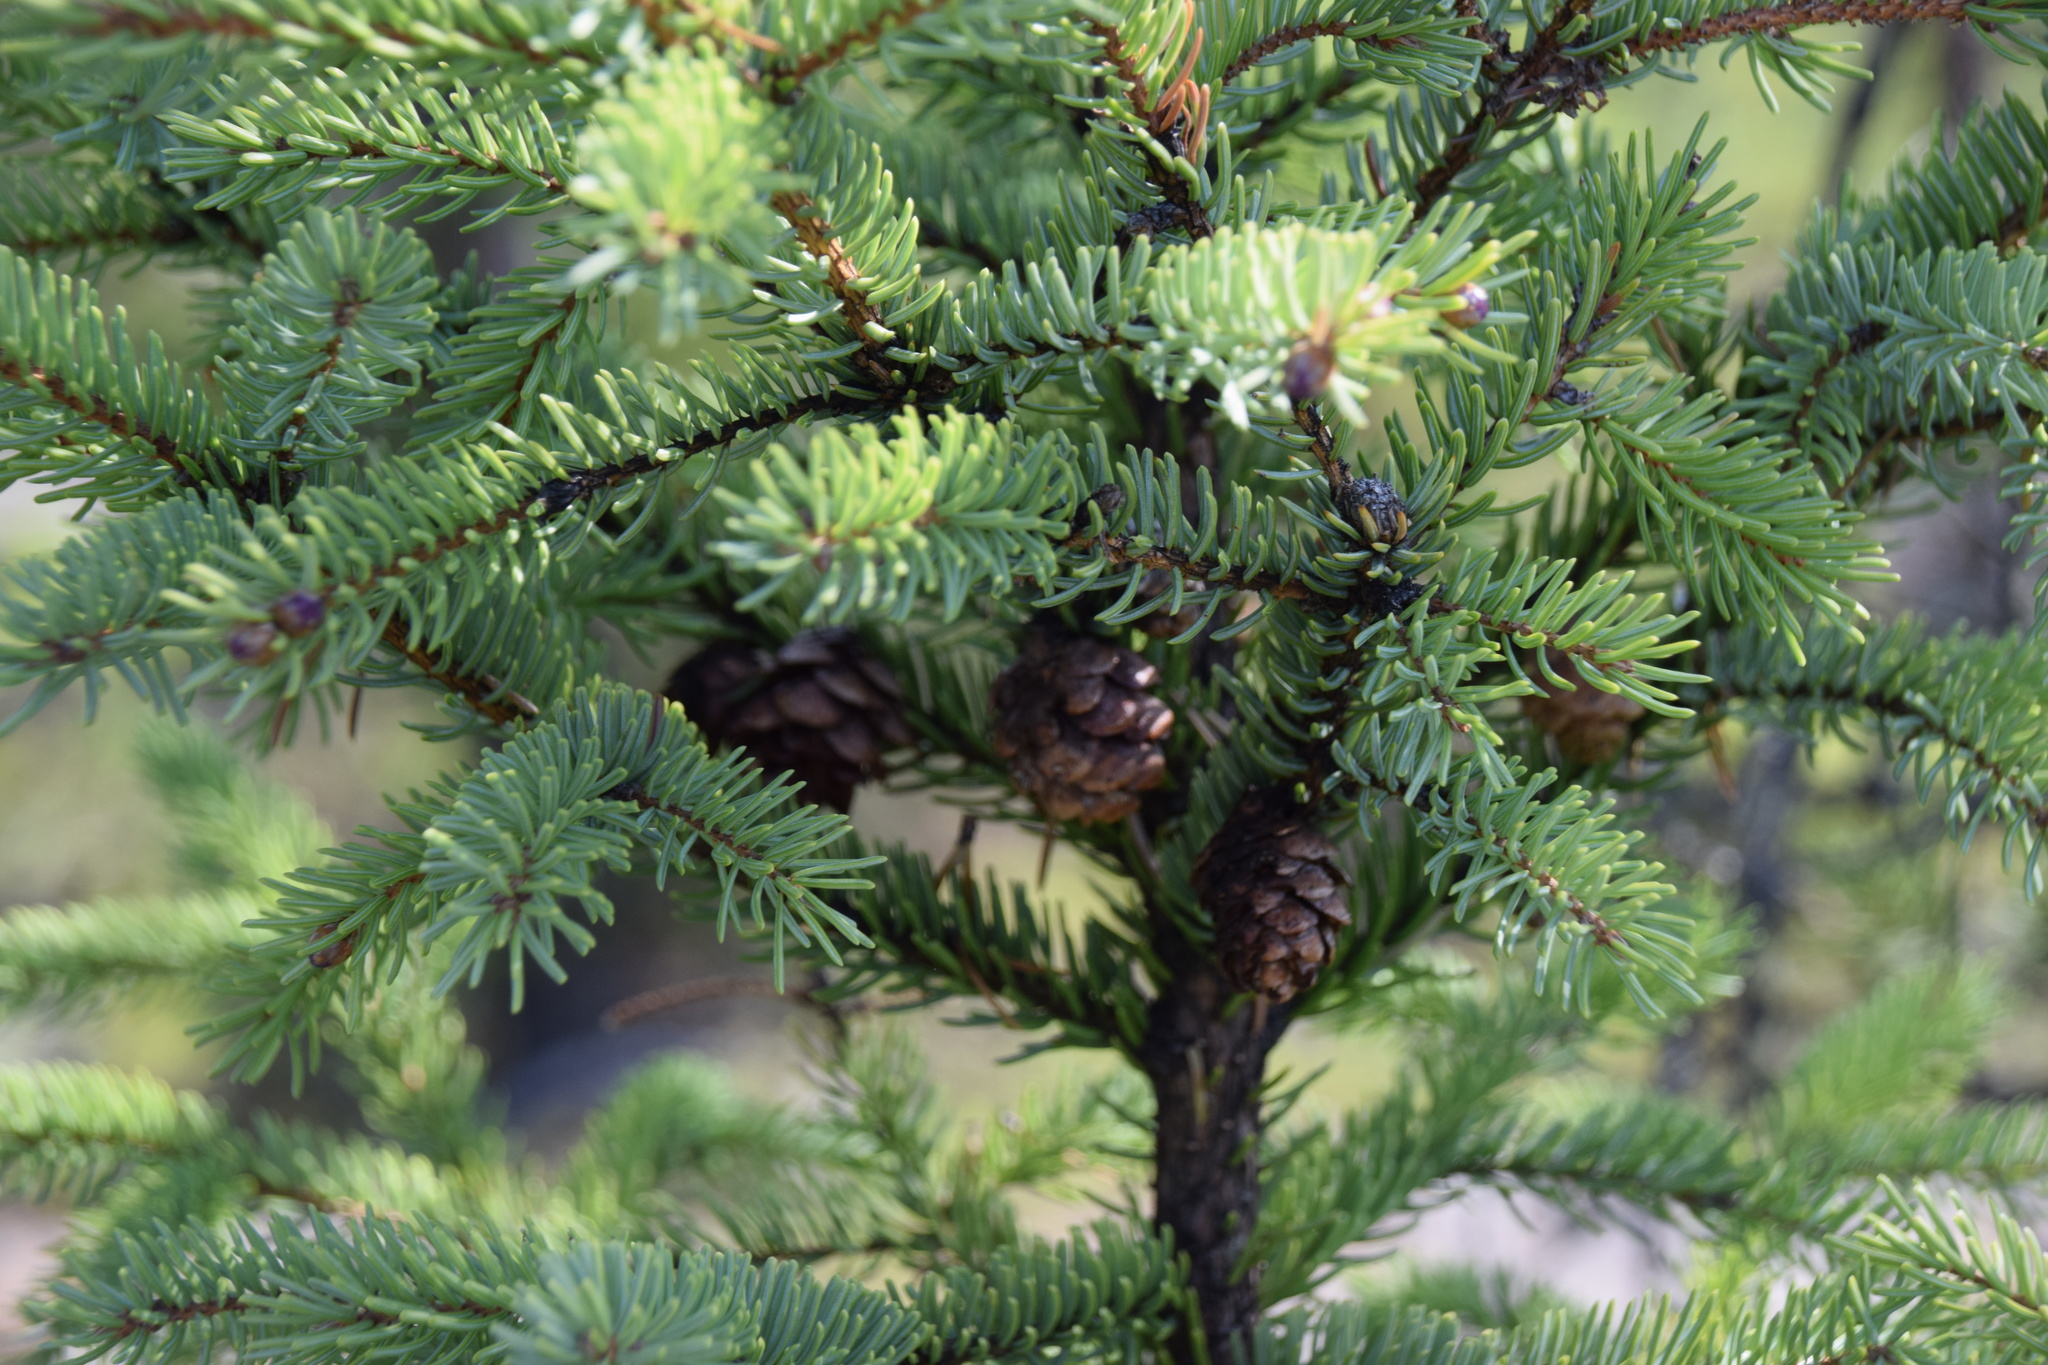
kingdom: Plantae
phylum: Tracheophyta
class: Pinopsida
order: Pinales
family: Pinaceae
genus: Picea
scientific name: Picea mariana
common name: Black spruce
